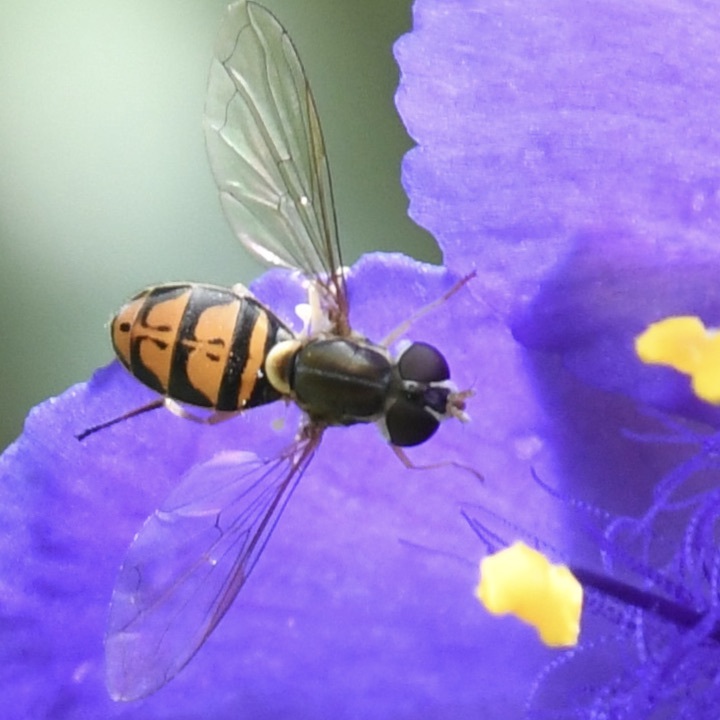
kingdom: Animalia
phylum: Arthropoda
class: Insecta
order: Diptera
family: Syrphidae
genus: Toxomerus
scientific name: Toxomerus marginatus
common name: Syrphid fly
